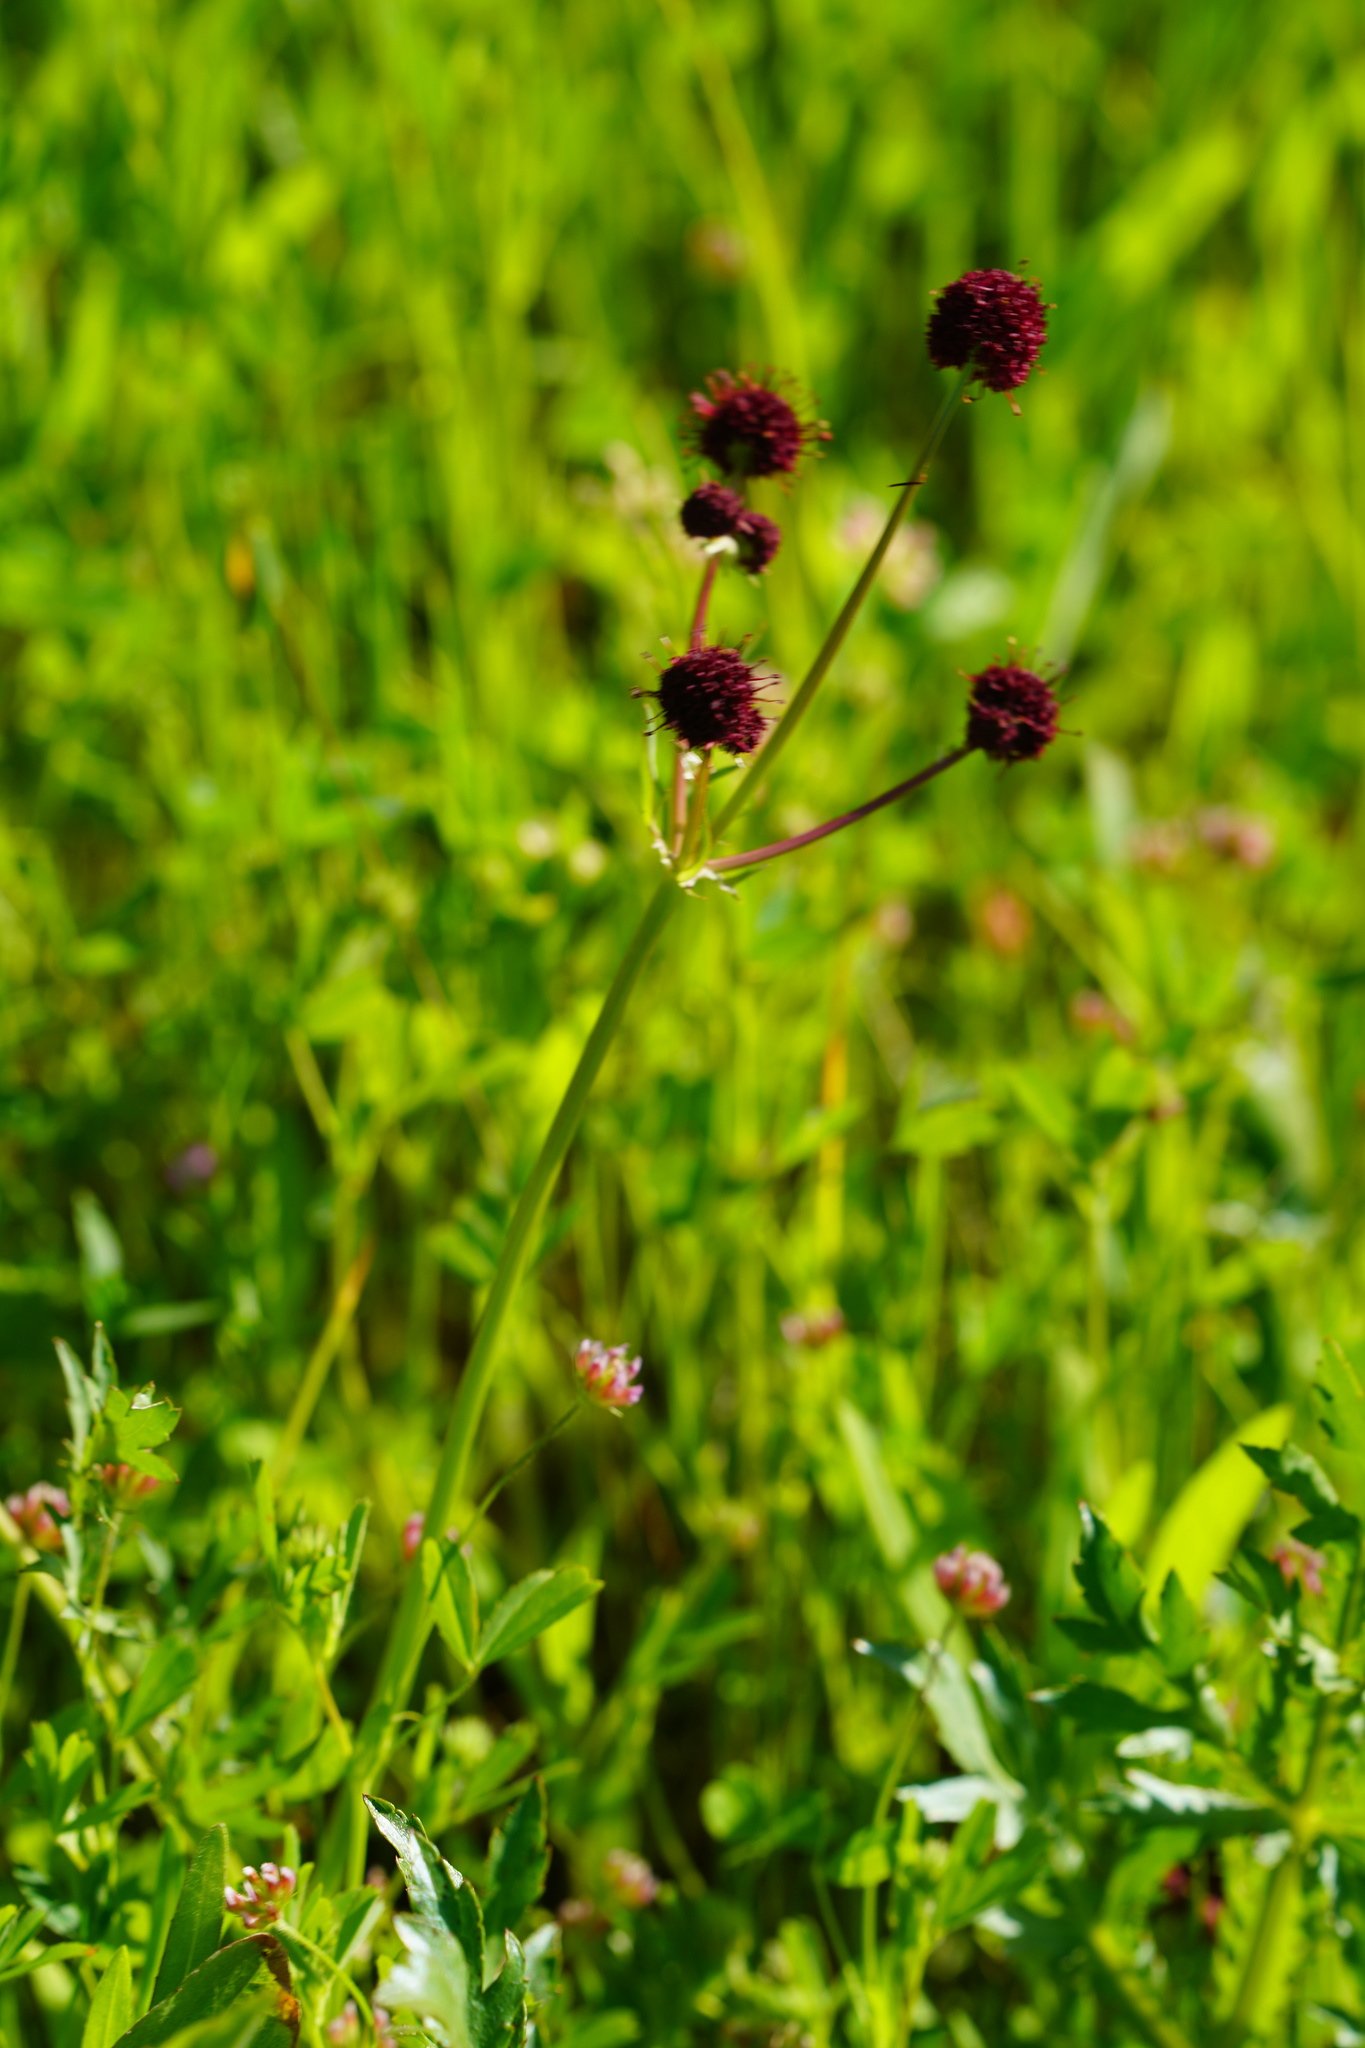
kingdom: Plantae
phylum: Tracheophyta
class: Magnoliopsida
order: Apiales
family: Apiaceae
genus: Sanicula
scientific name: Sanicula bipinnatifida
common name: Shoe-buttons
